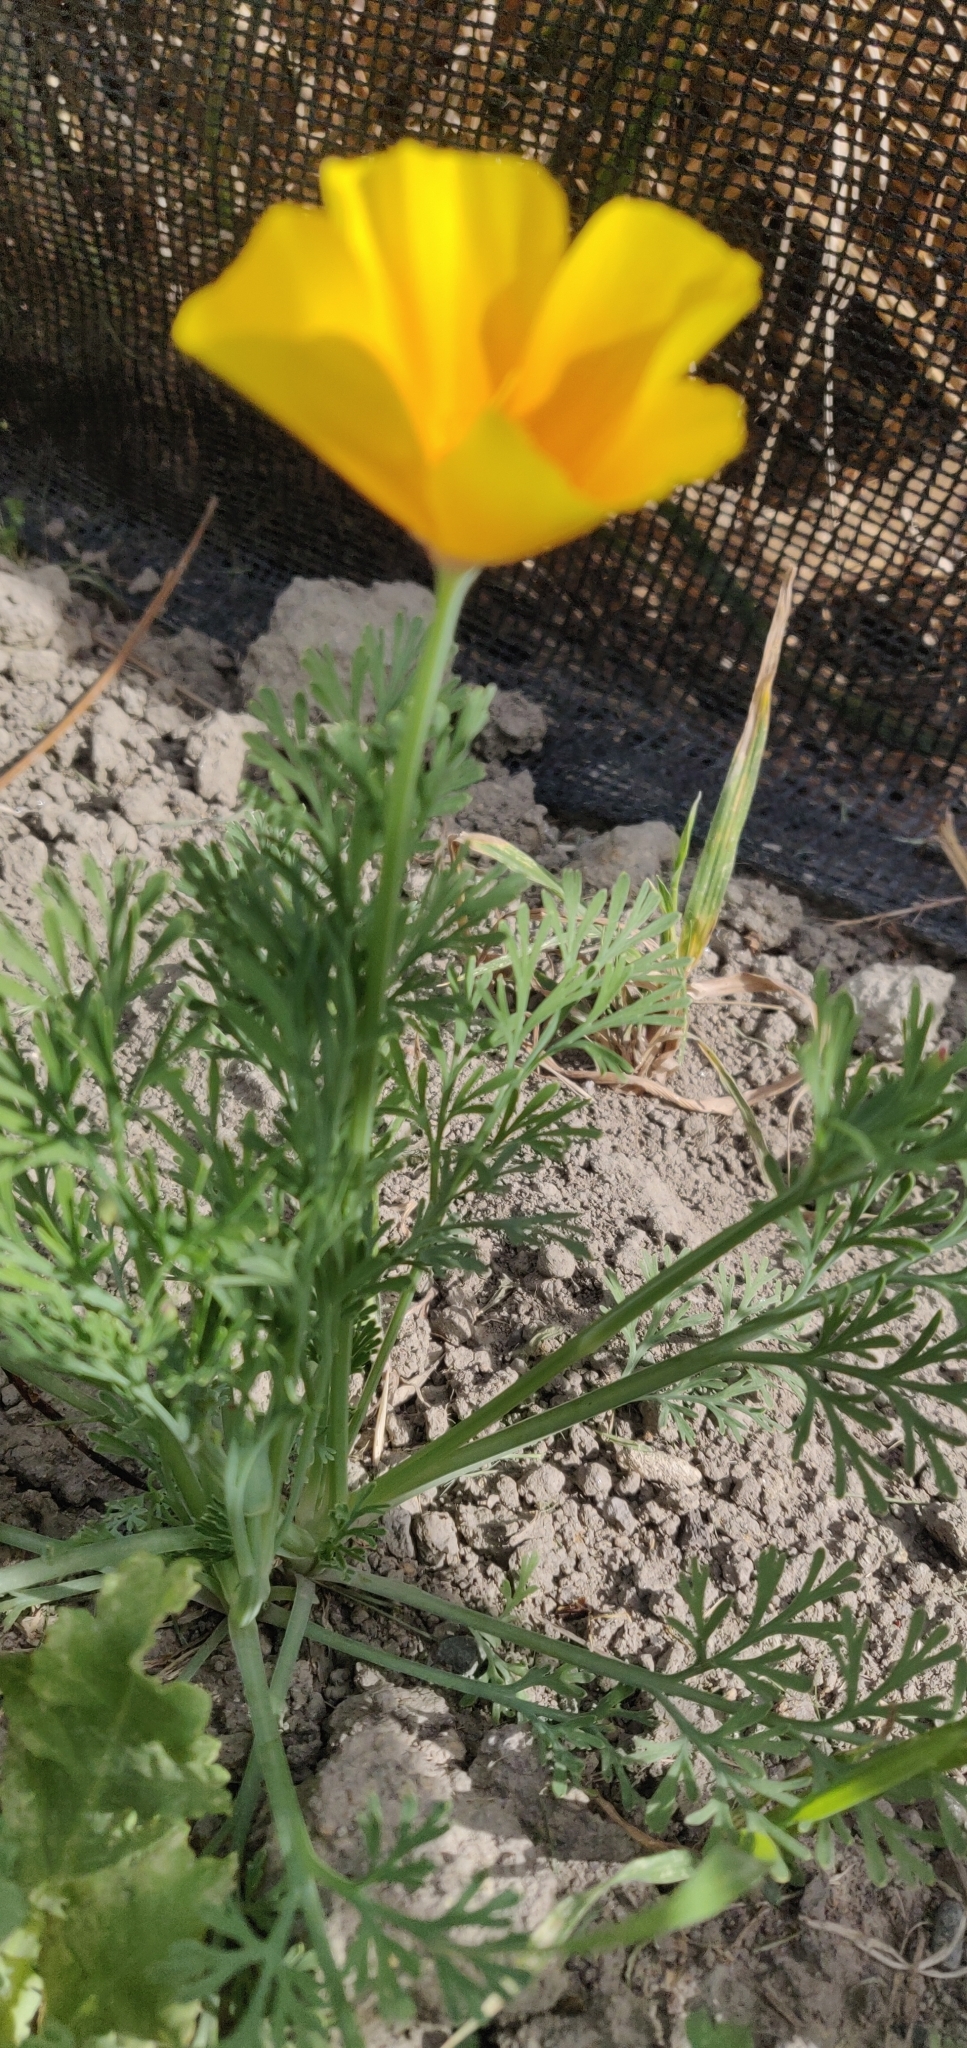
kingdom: Plantae
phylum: Tracheophyta
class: Magnoliopsida
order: Ranunculales
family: Papaveraceae
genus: Eschscholzia
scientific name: Eschscholzia californica
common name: California poppy
